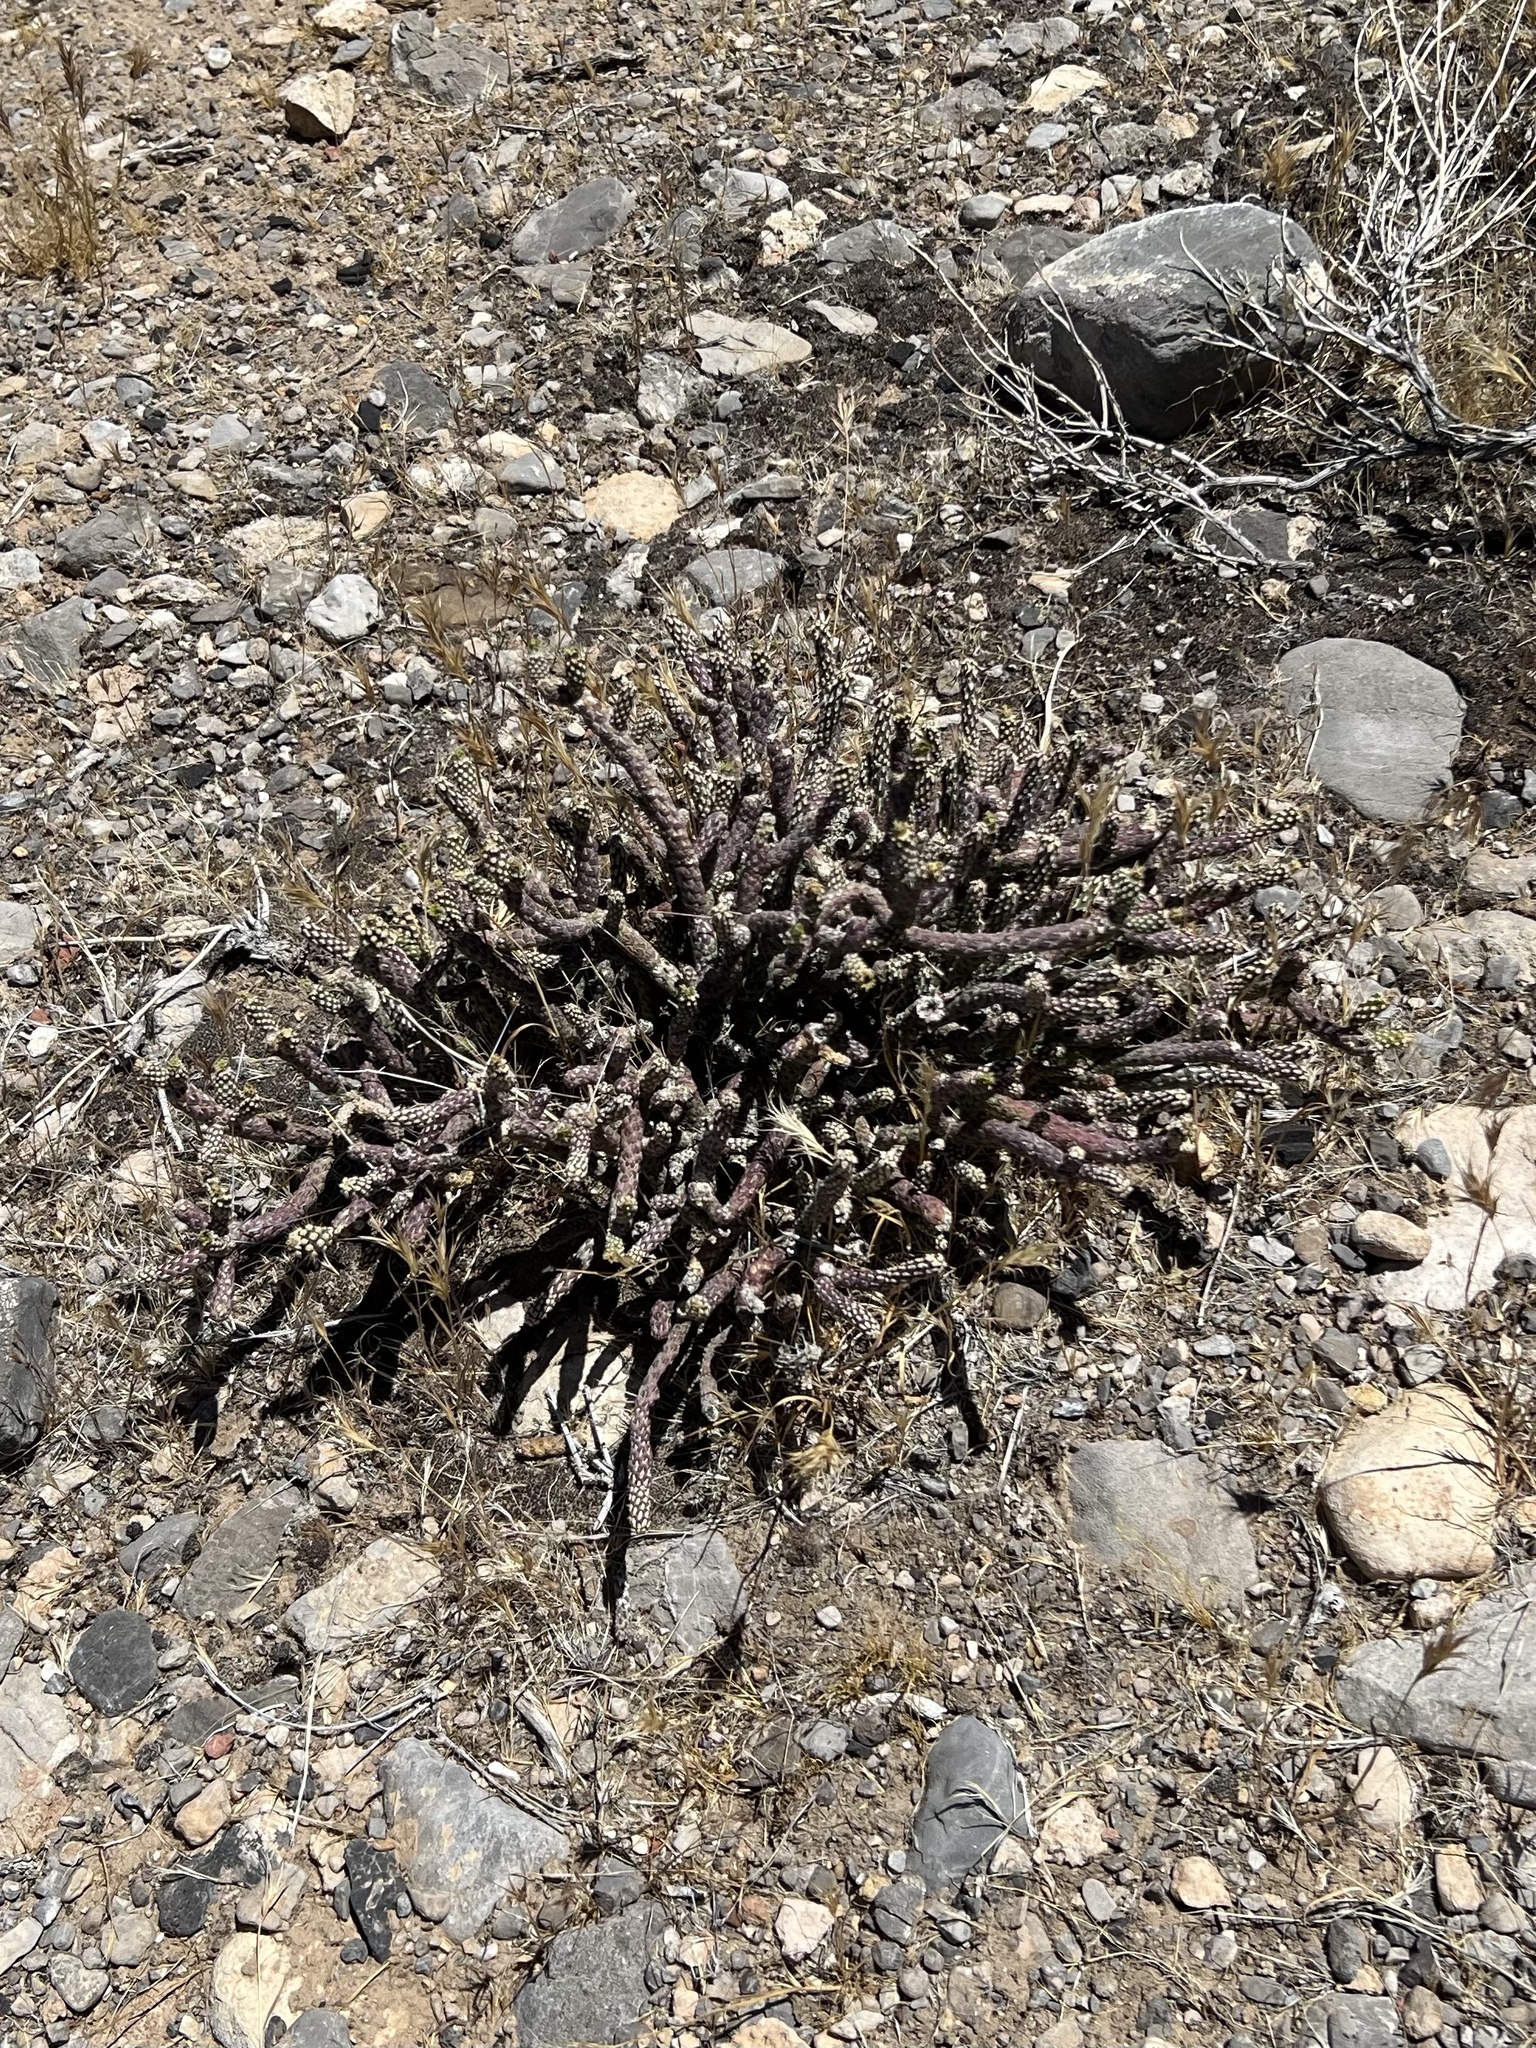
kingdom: Plantae
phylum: Tracheophyta
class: Magnoliopsida
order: Caryophyllales
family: Cactaceae
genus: Cylindropuntia
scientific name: Cylindropuntia ramosissima
